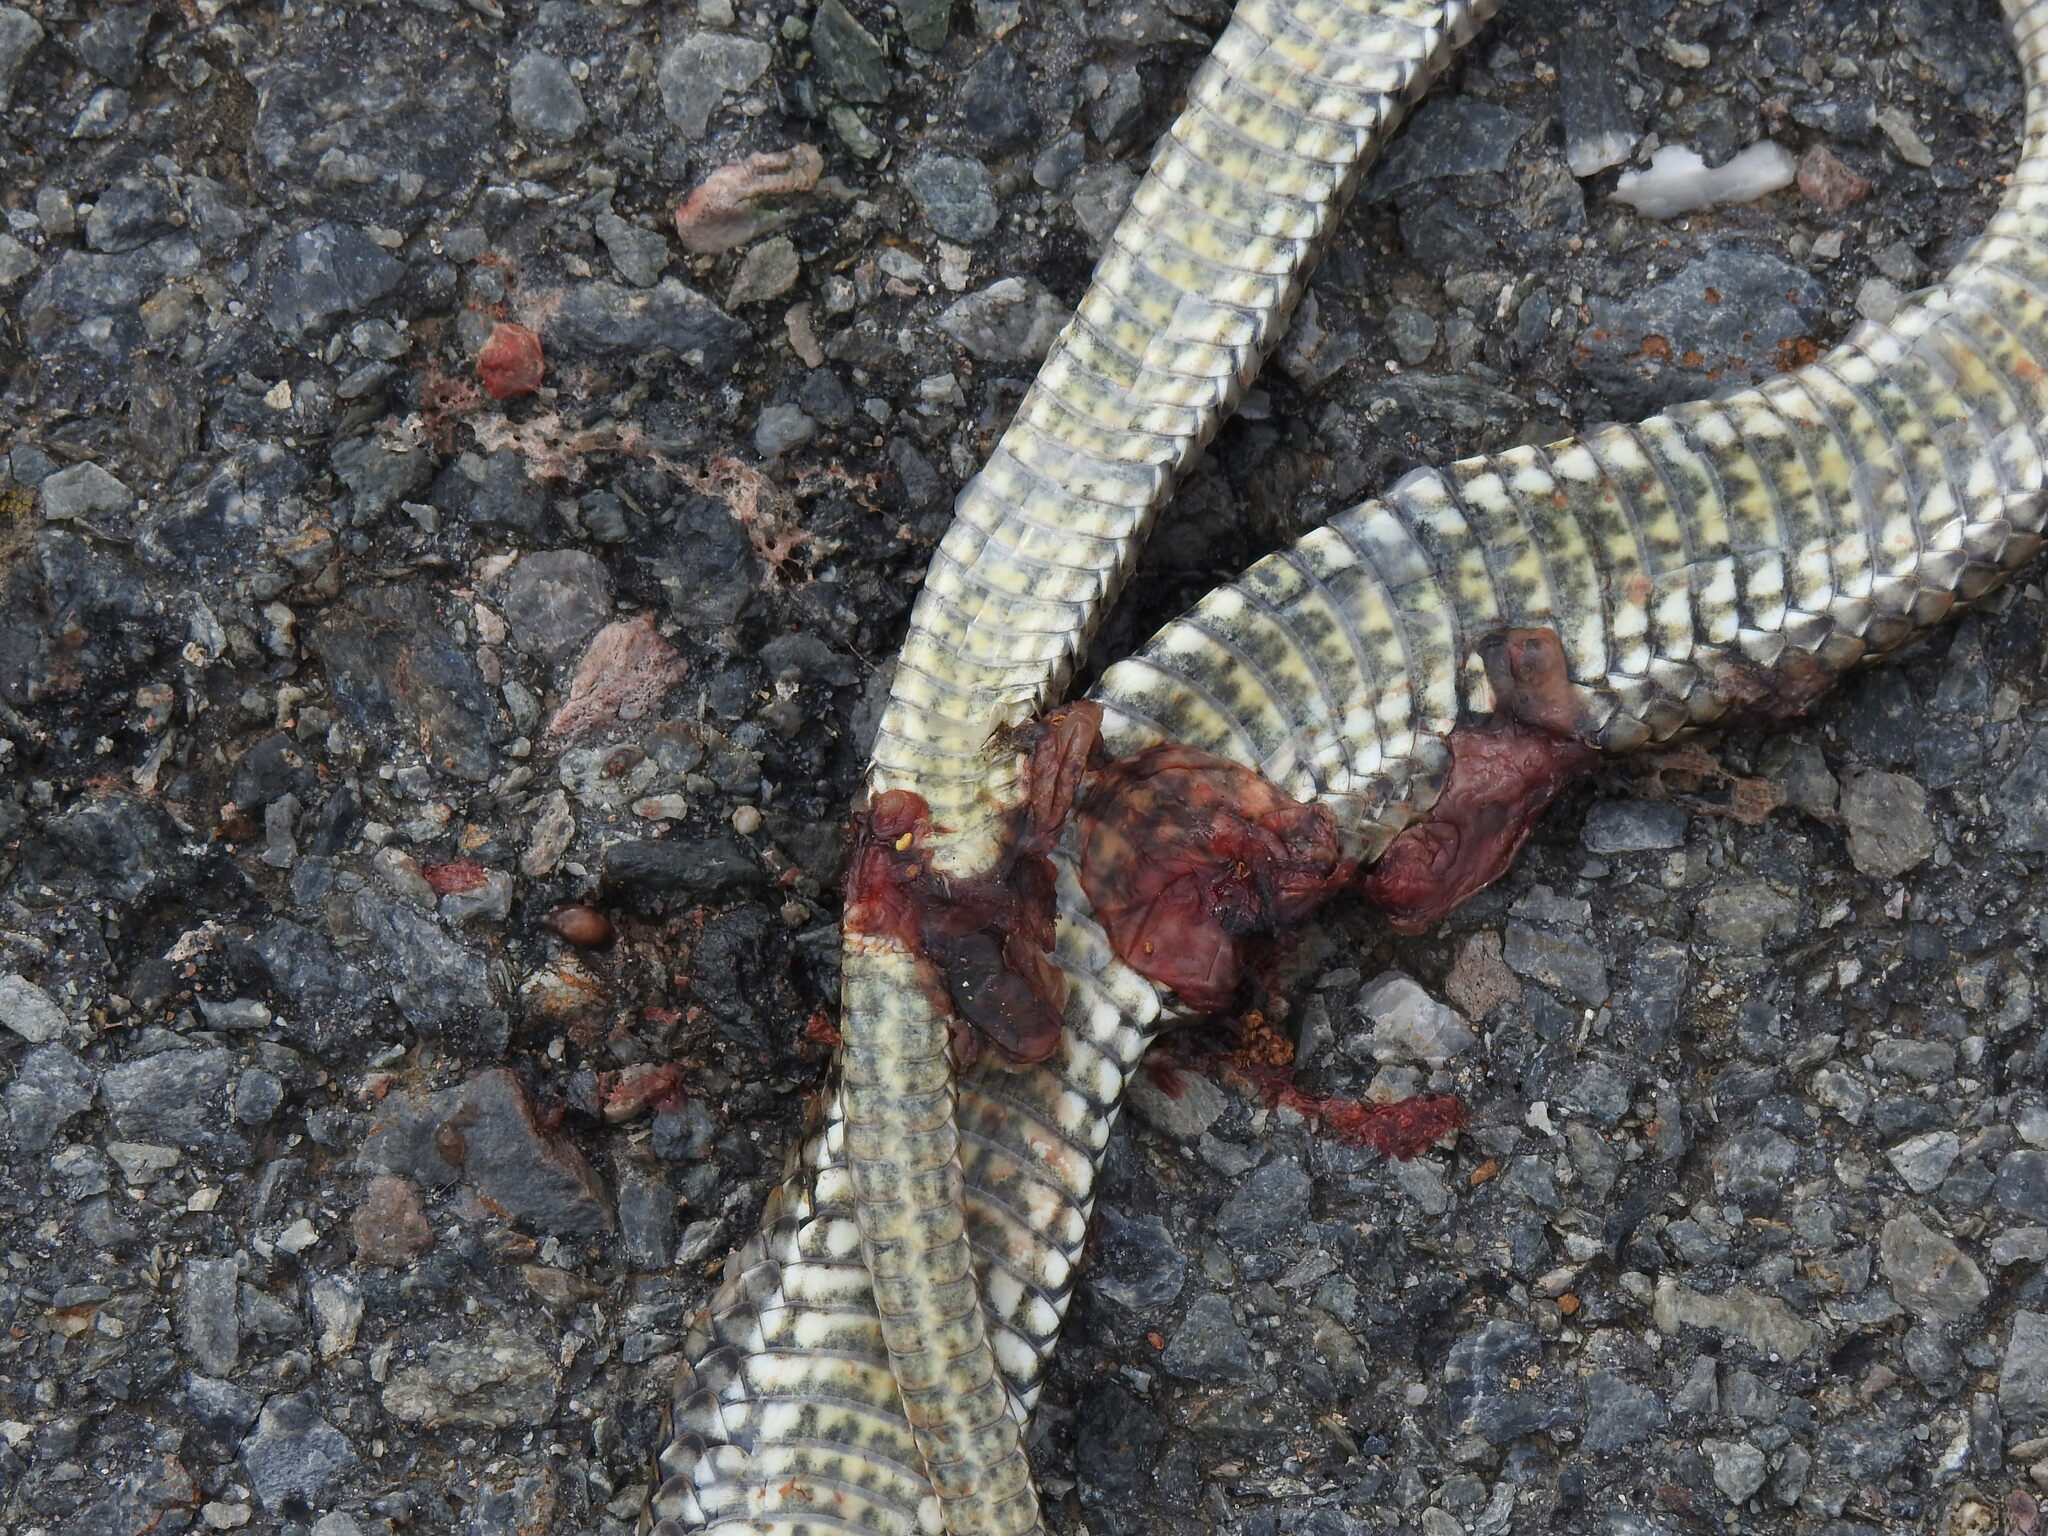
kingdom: Animalia
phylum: Chordata
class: Squamata
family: Psammophiidae
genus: Malpolon
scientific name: Malpolon monspessulanus
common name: Montpellier snake
